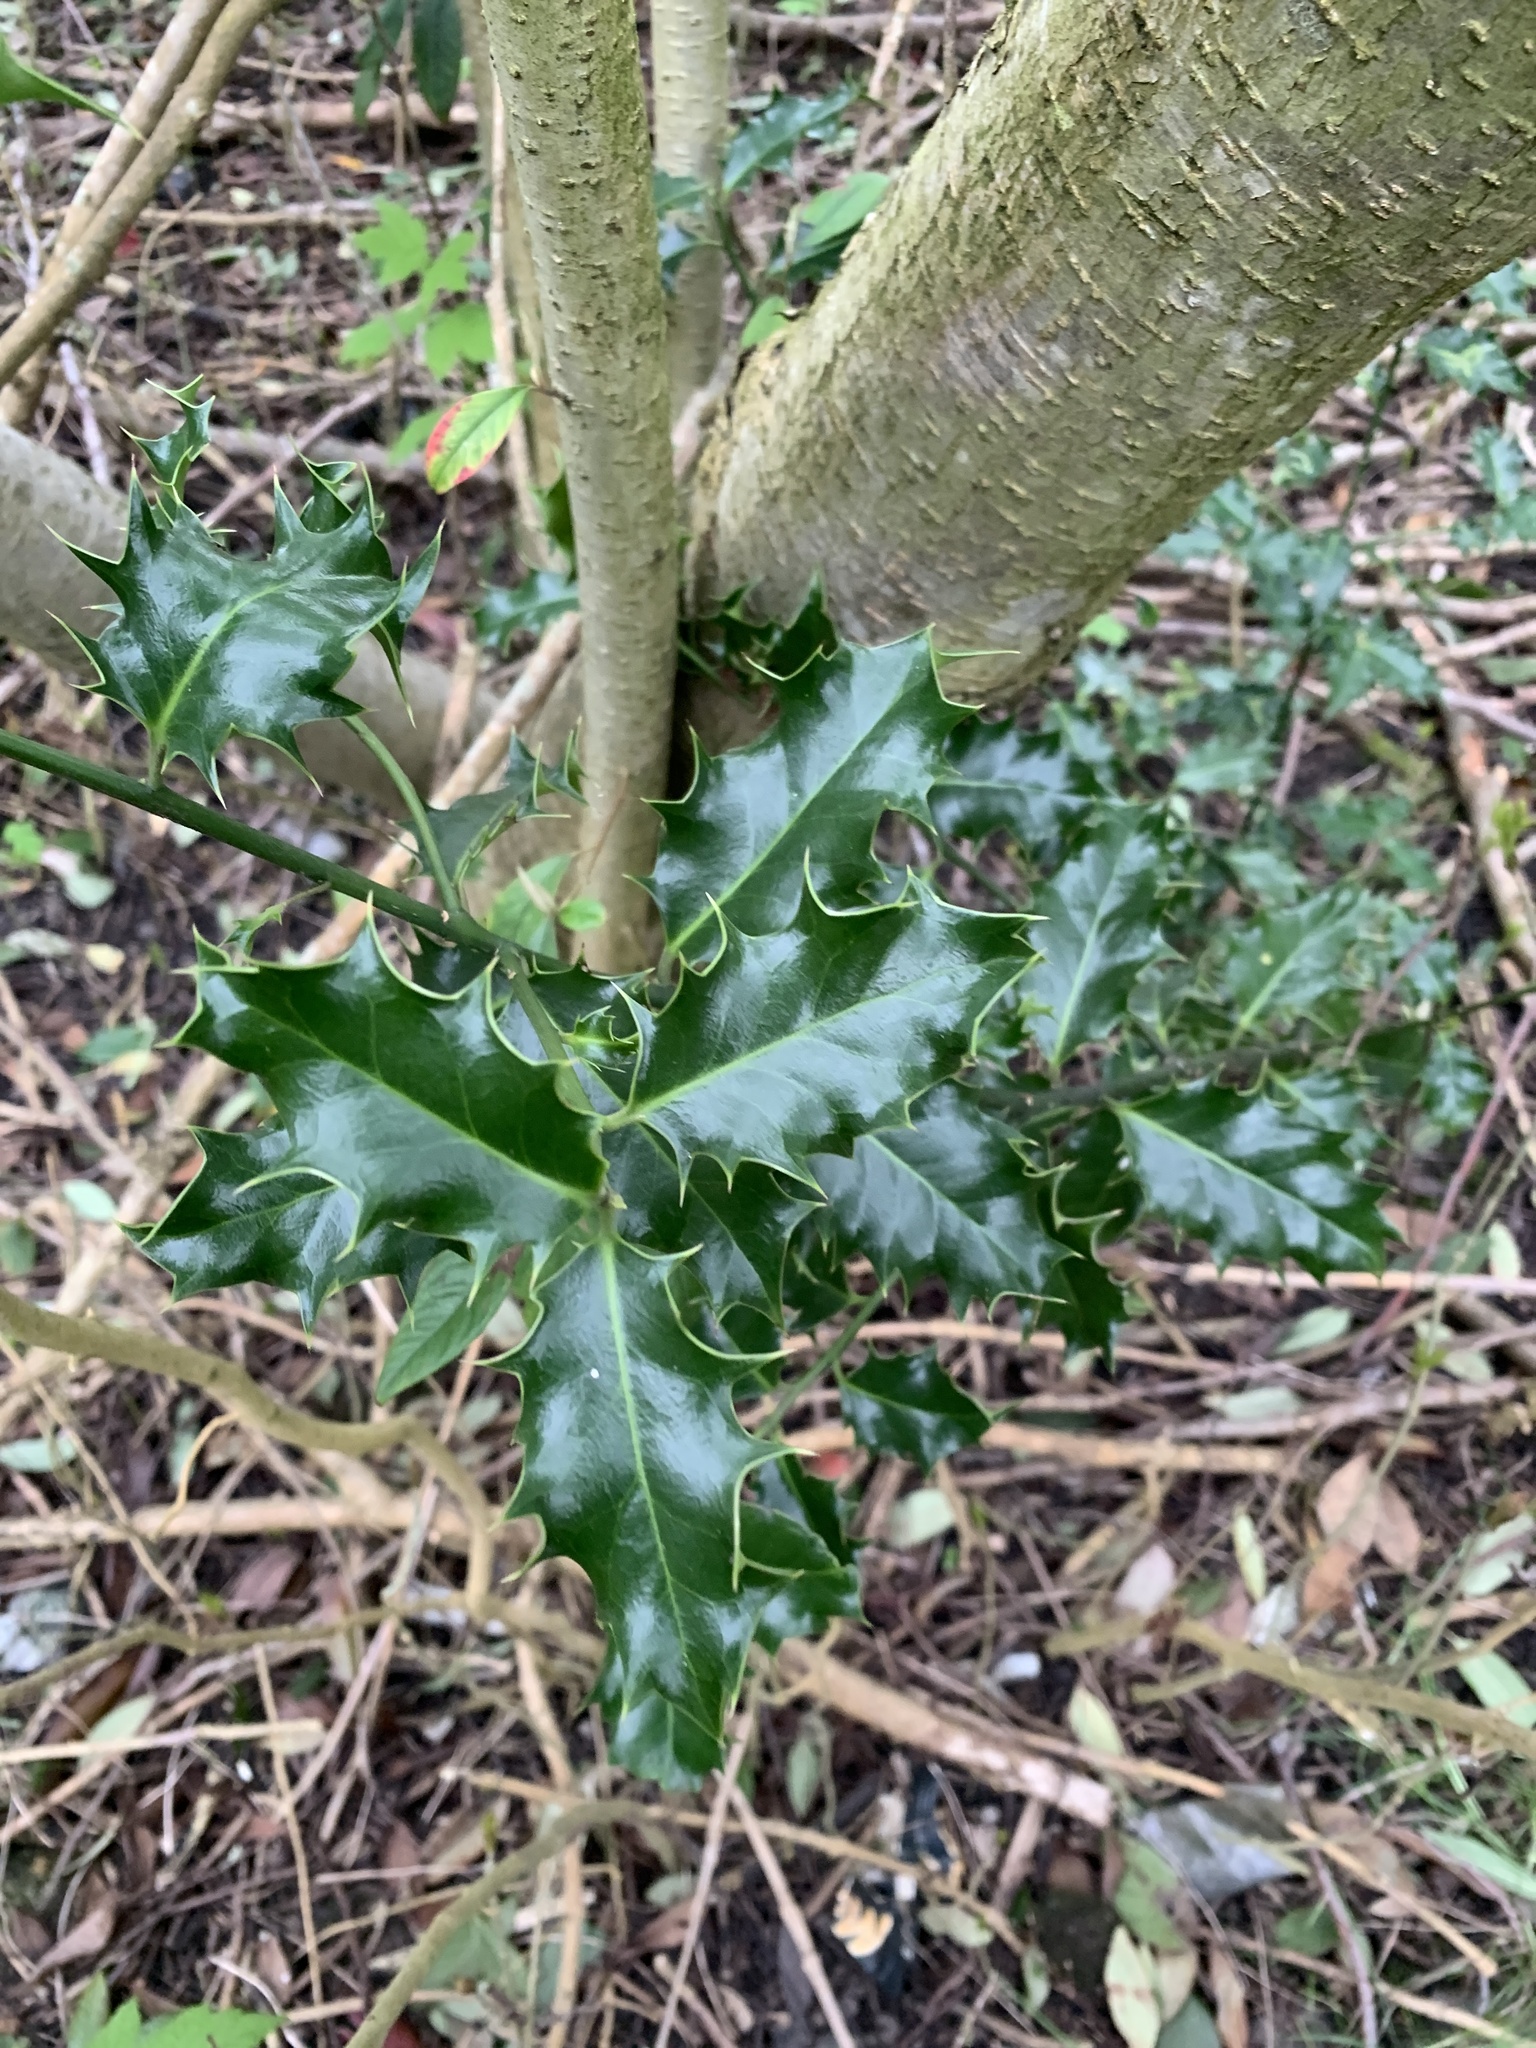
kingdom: Plantae
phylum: Tracheophyta
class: Magnoliopsida
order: Aquifoliales
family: Aquifoliaceae
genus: Ilex
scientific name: Ilex aquifolium
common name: English holly
